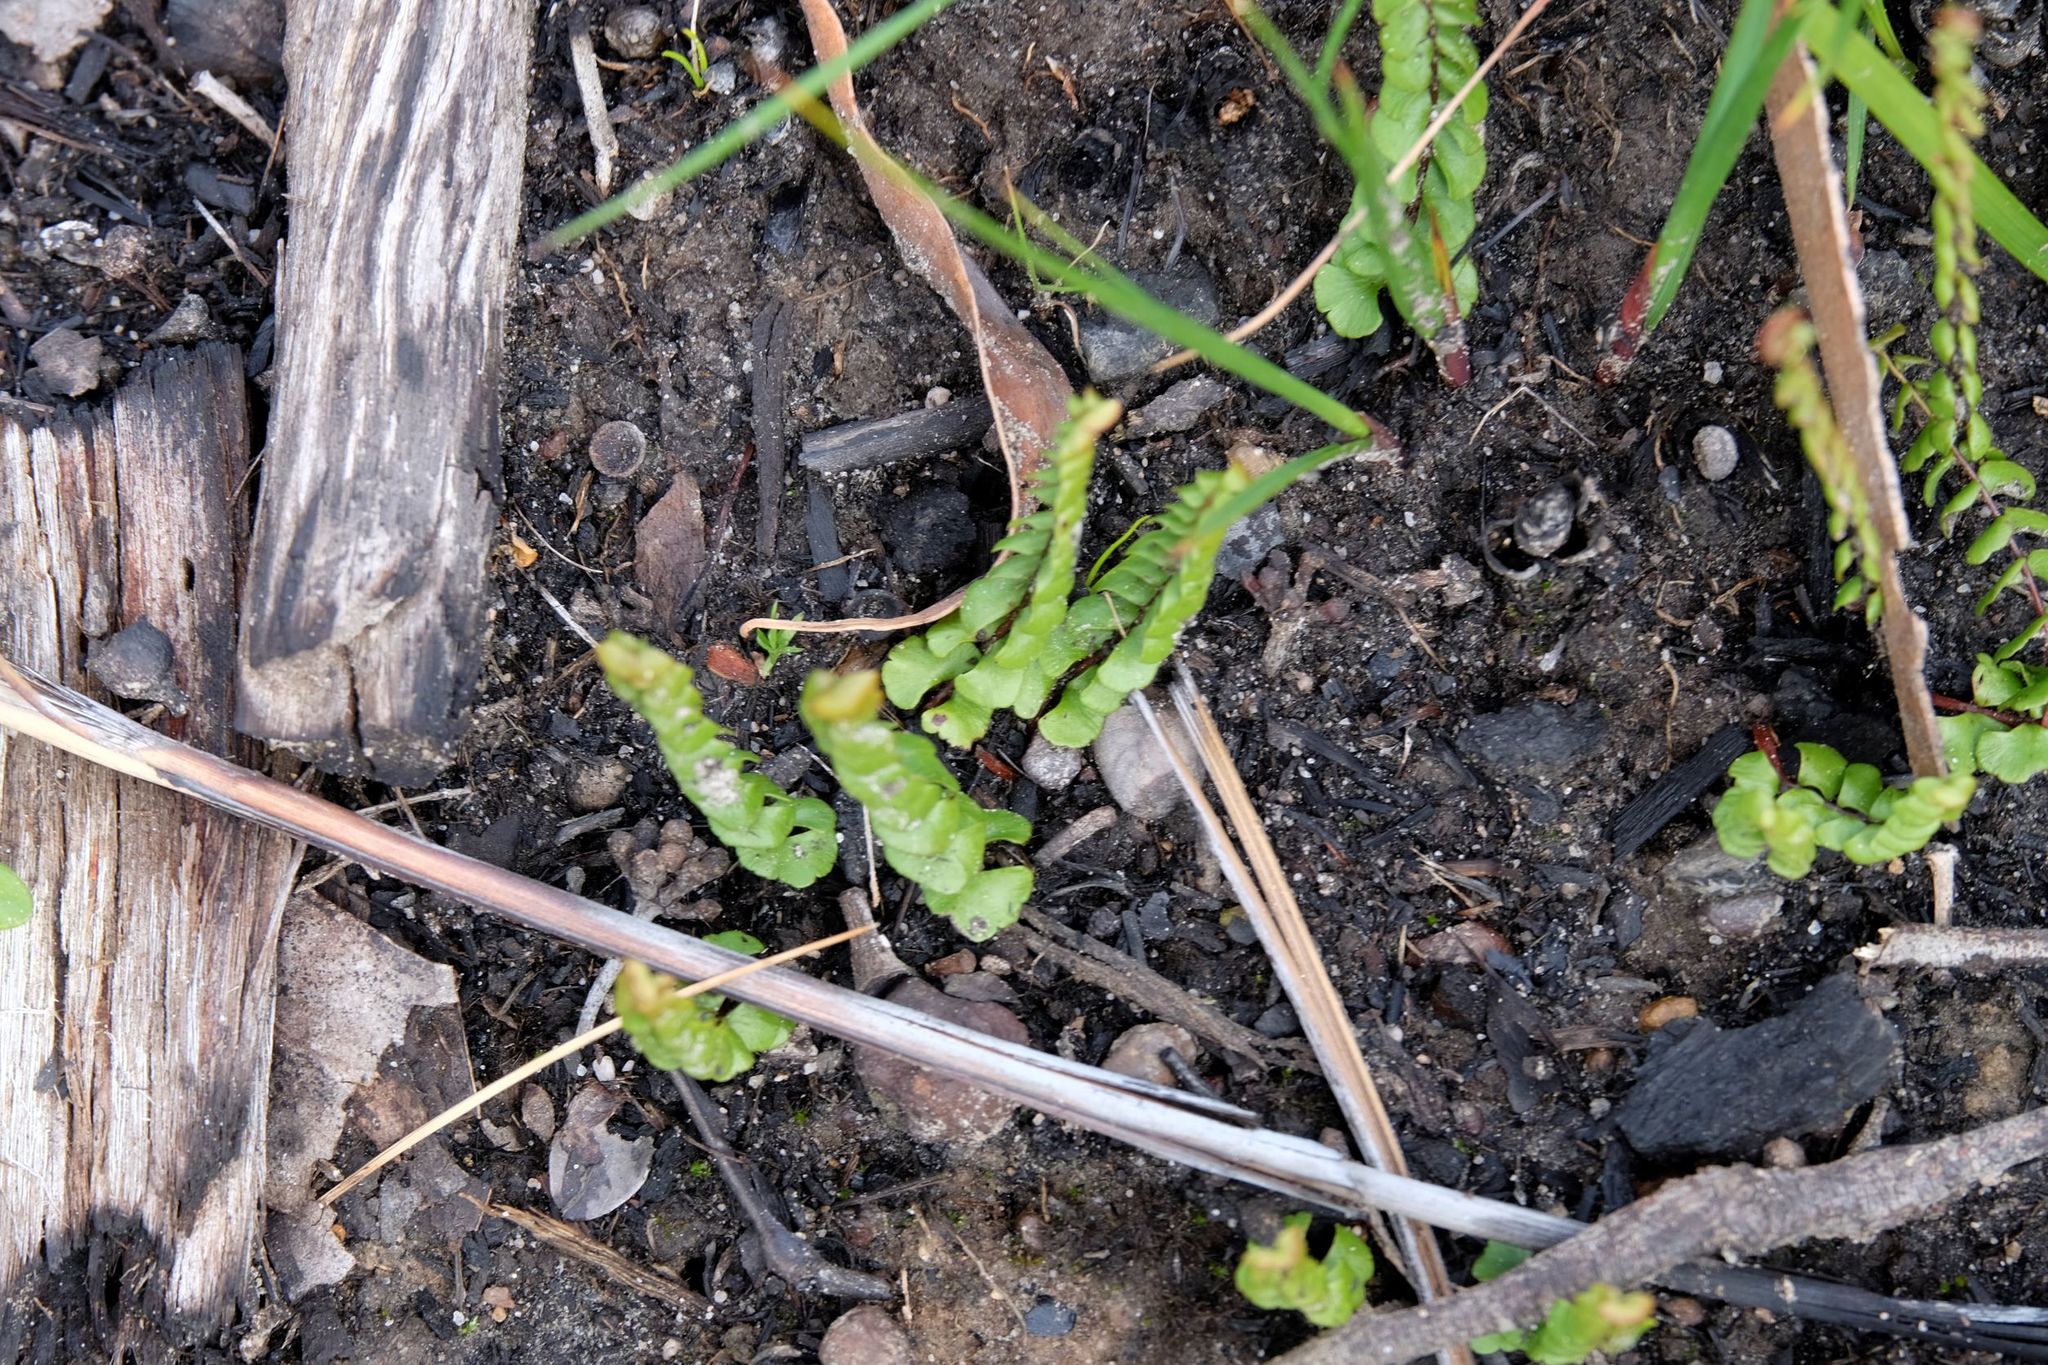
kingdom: Plantae
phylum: Tracheophyta
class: Polypodiopsida
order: Polypodiales
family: Lindsaeaceae
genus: Lindsaea
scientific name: Lindsaea linearis
